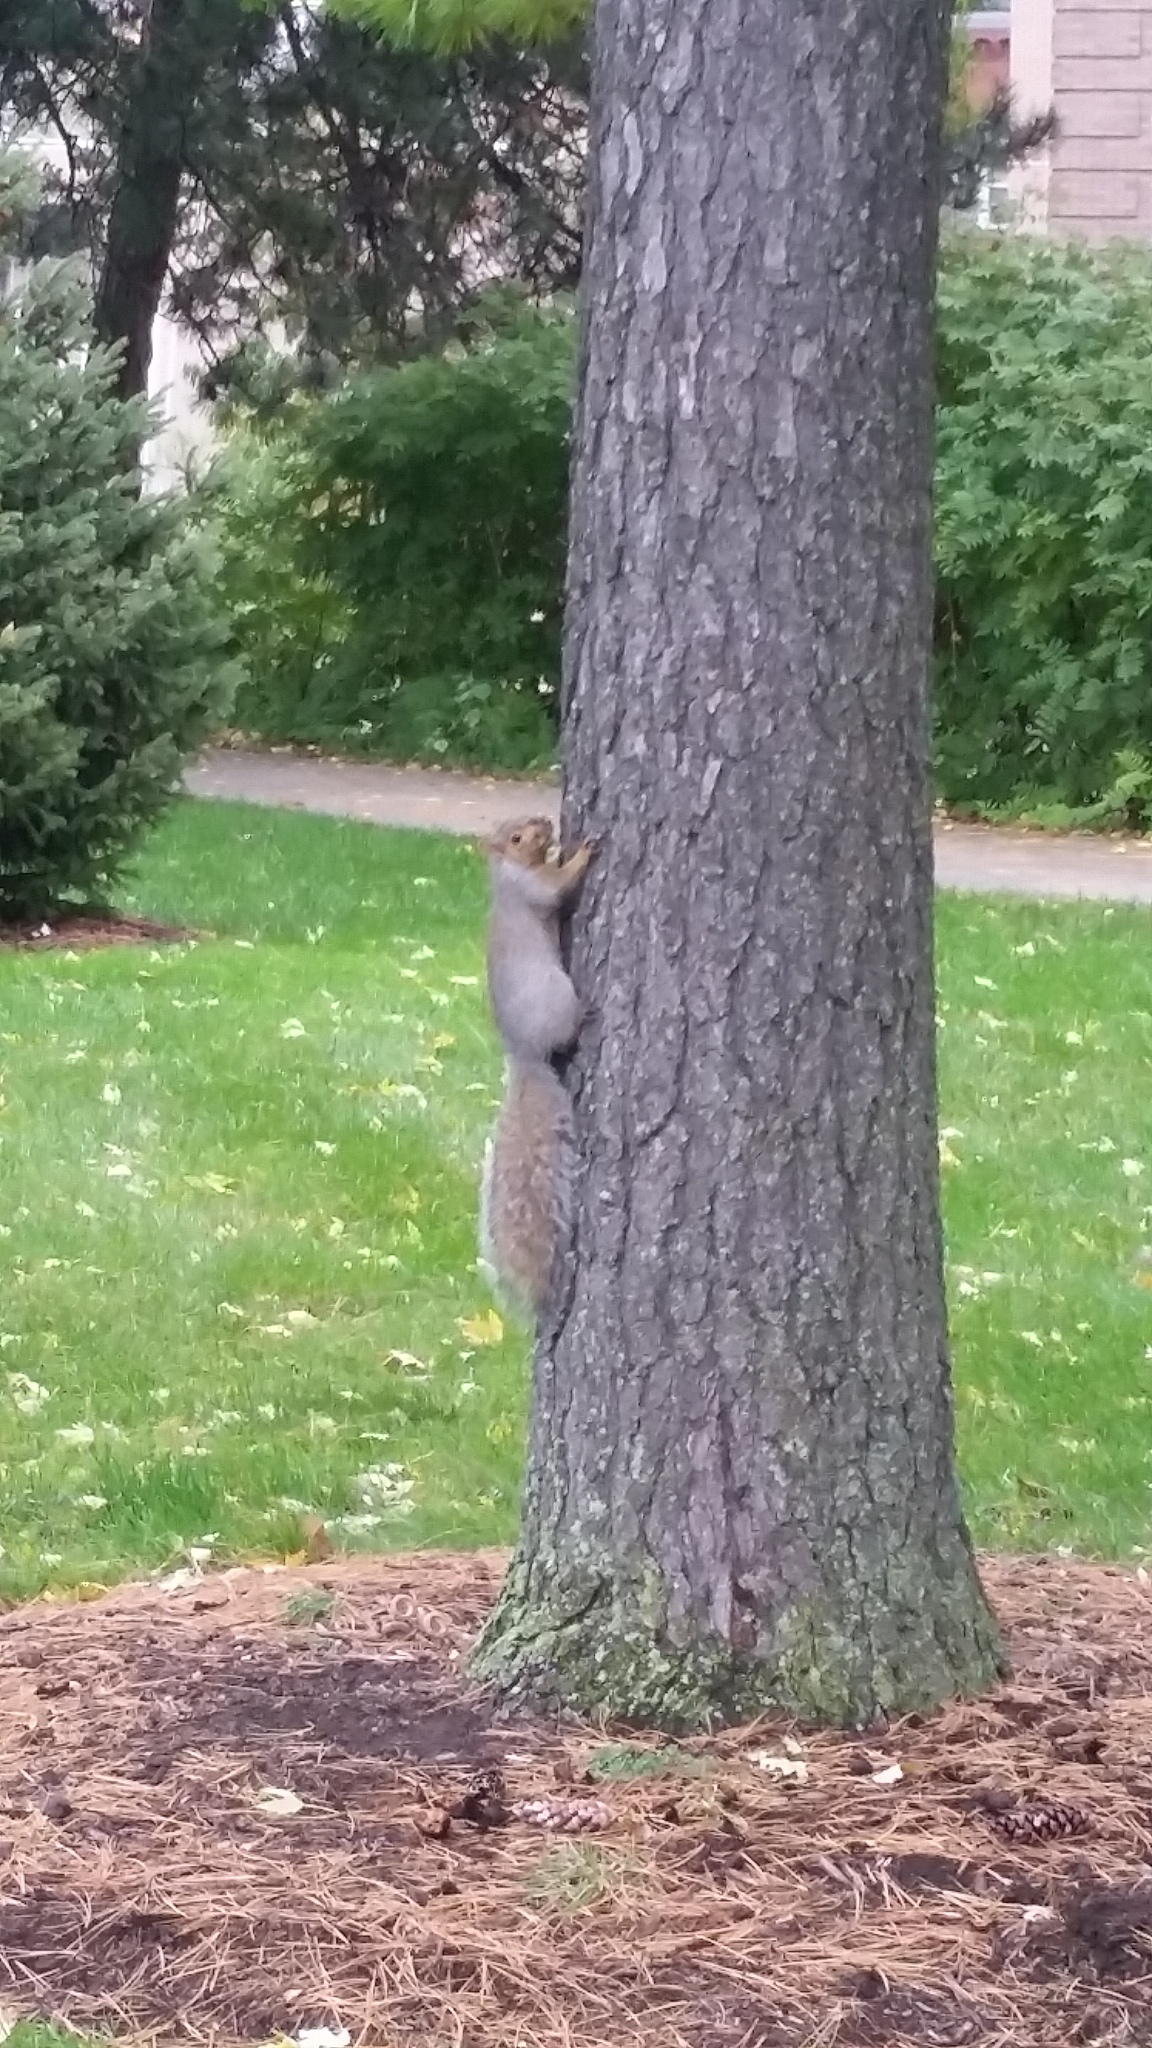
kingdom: Animalia
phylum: Chordata
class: Mammalia
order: Rodentia
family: Sciuridae
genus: Sciurus
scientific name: Sciurus carolinensis
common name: Eastern gray squirrel
